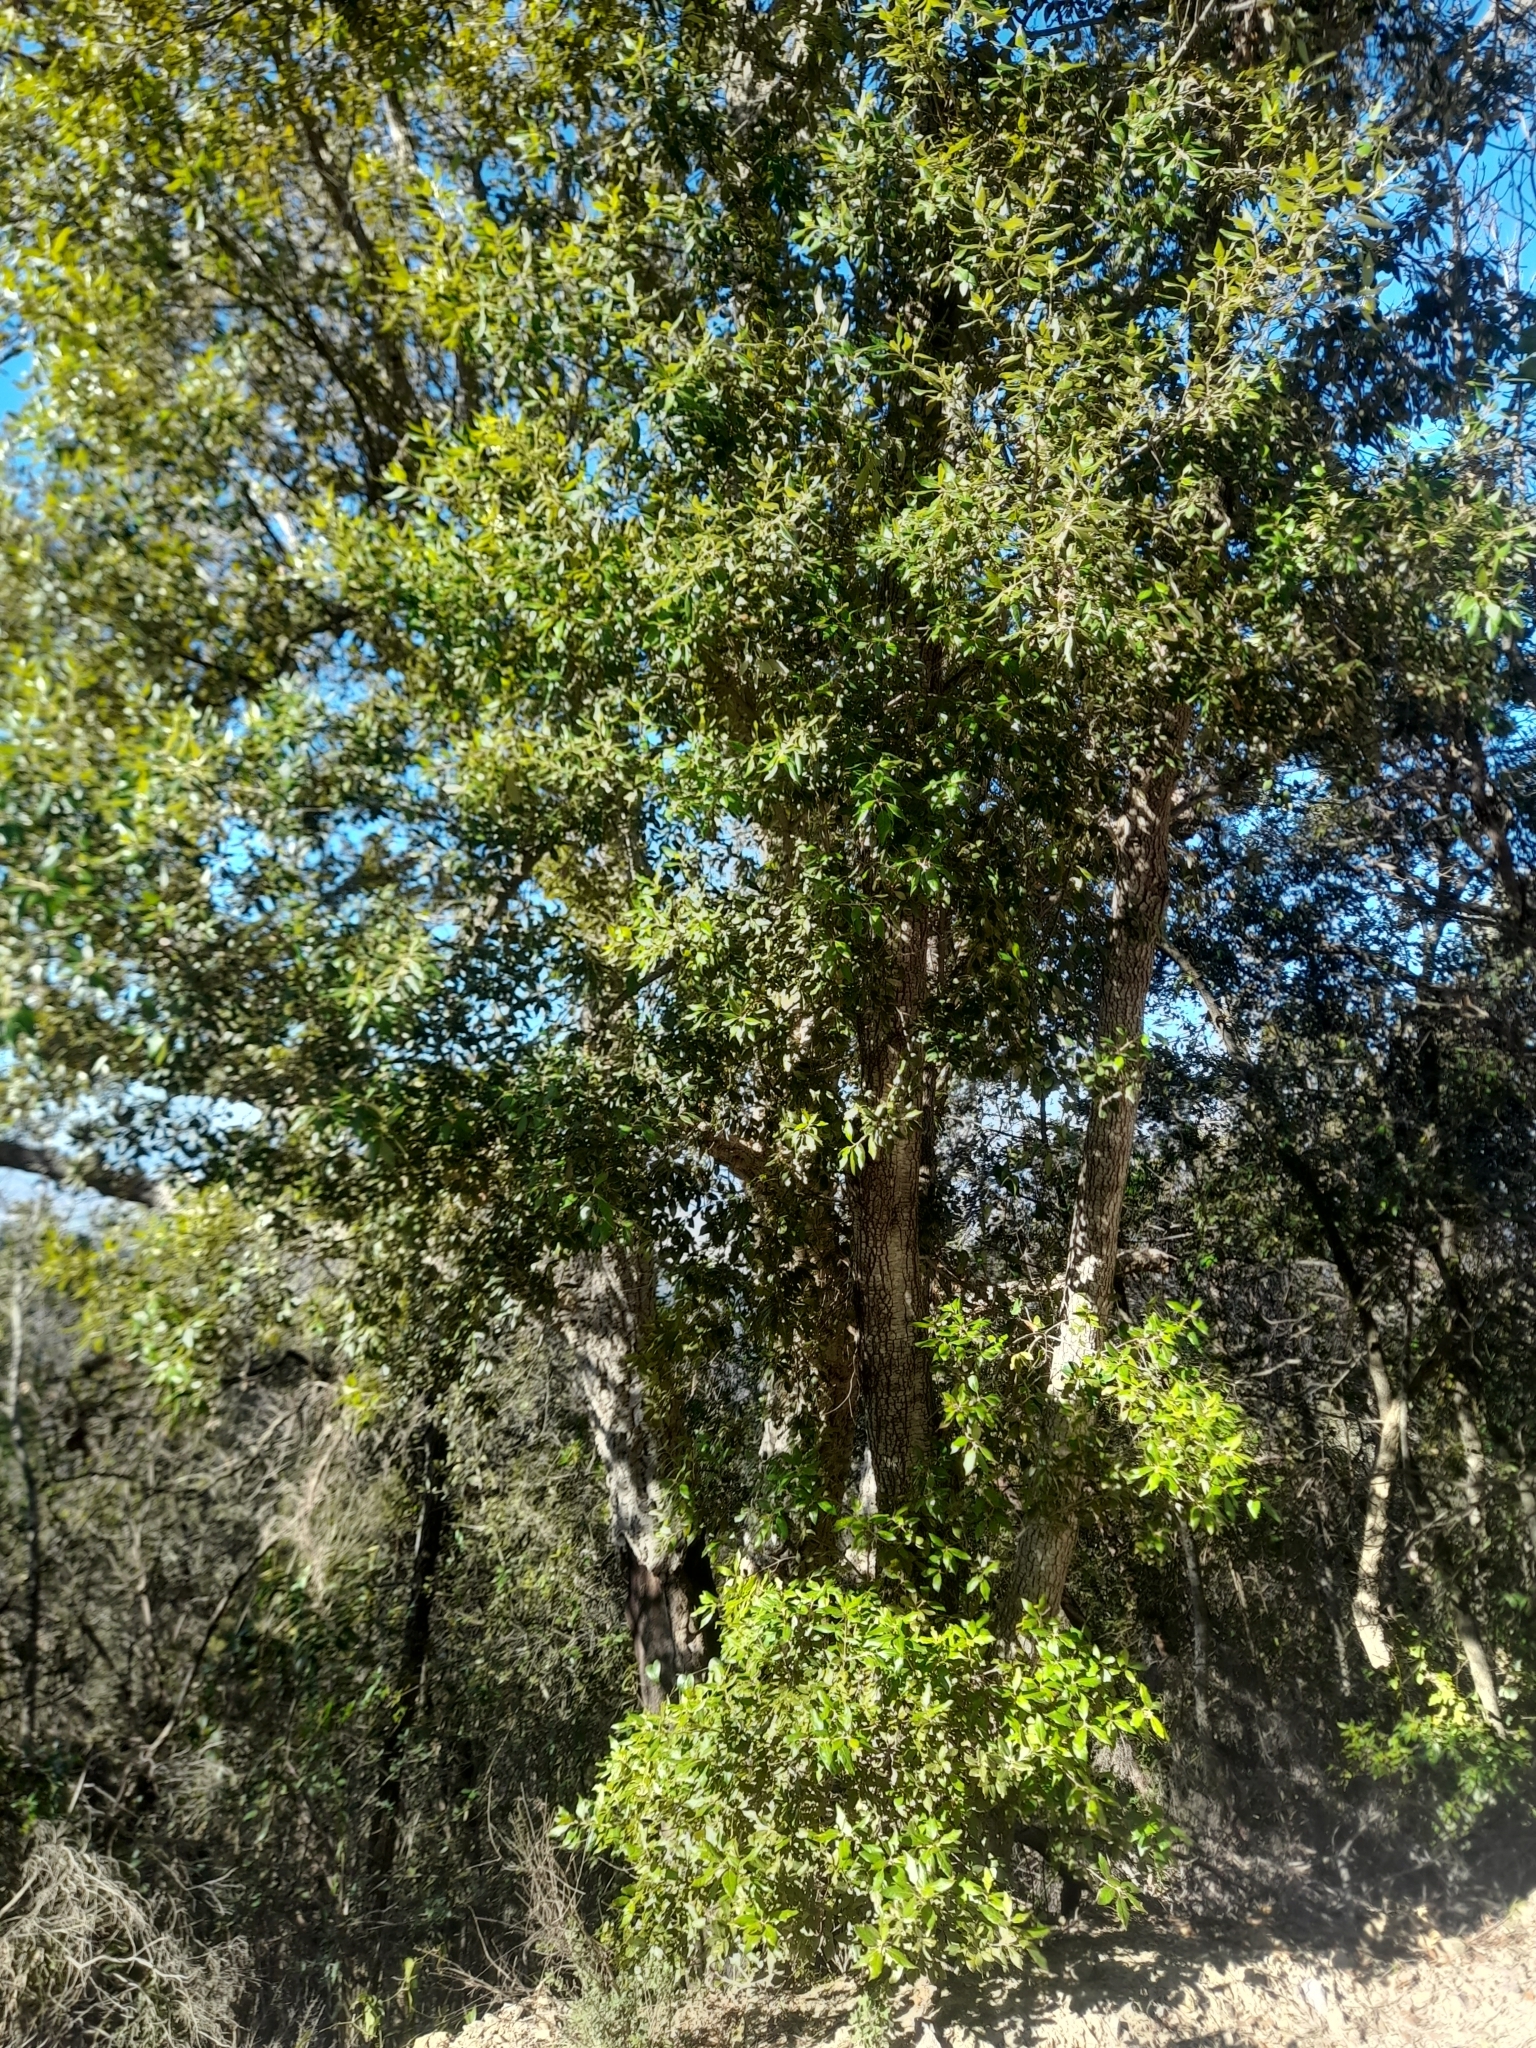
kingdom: Plantae
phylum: Tracheophyta
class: Magnoliopsida
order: Fagales
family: Fagaceae
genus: Quercus
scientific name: Quercus ilex
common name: Evergreen oak
